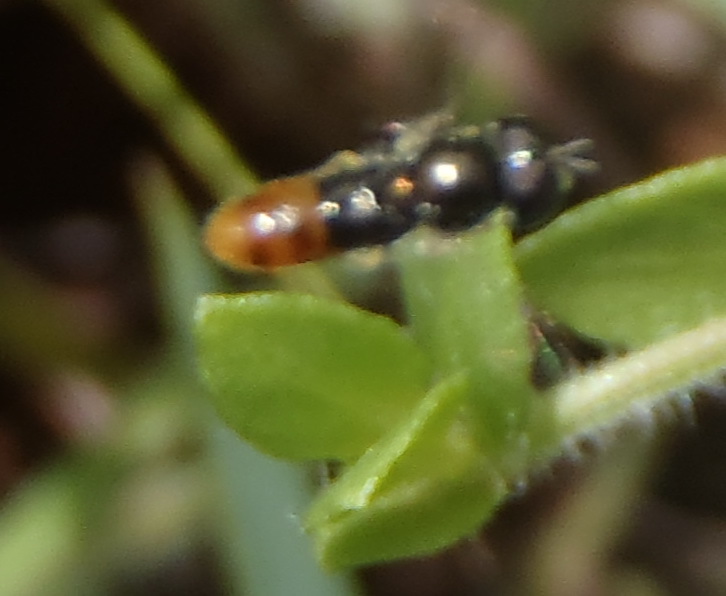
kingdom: Animalia
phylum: Arthropoda
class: Insecta
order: Diptera
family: Syrphidae
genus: Paragus
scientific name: Paragus haemorrhous
